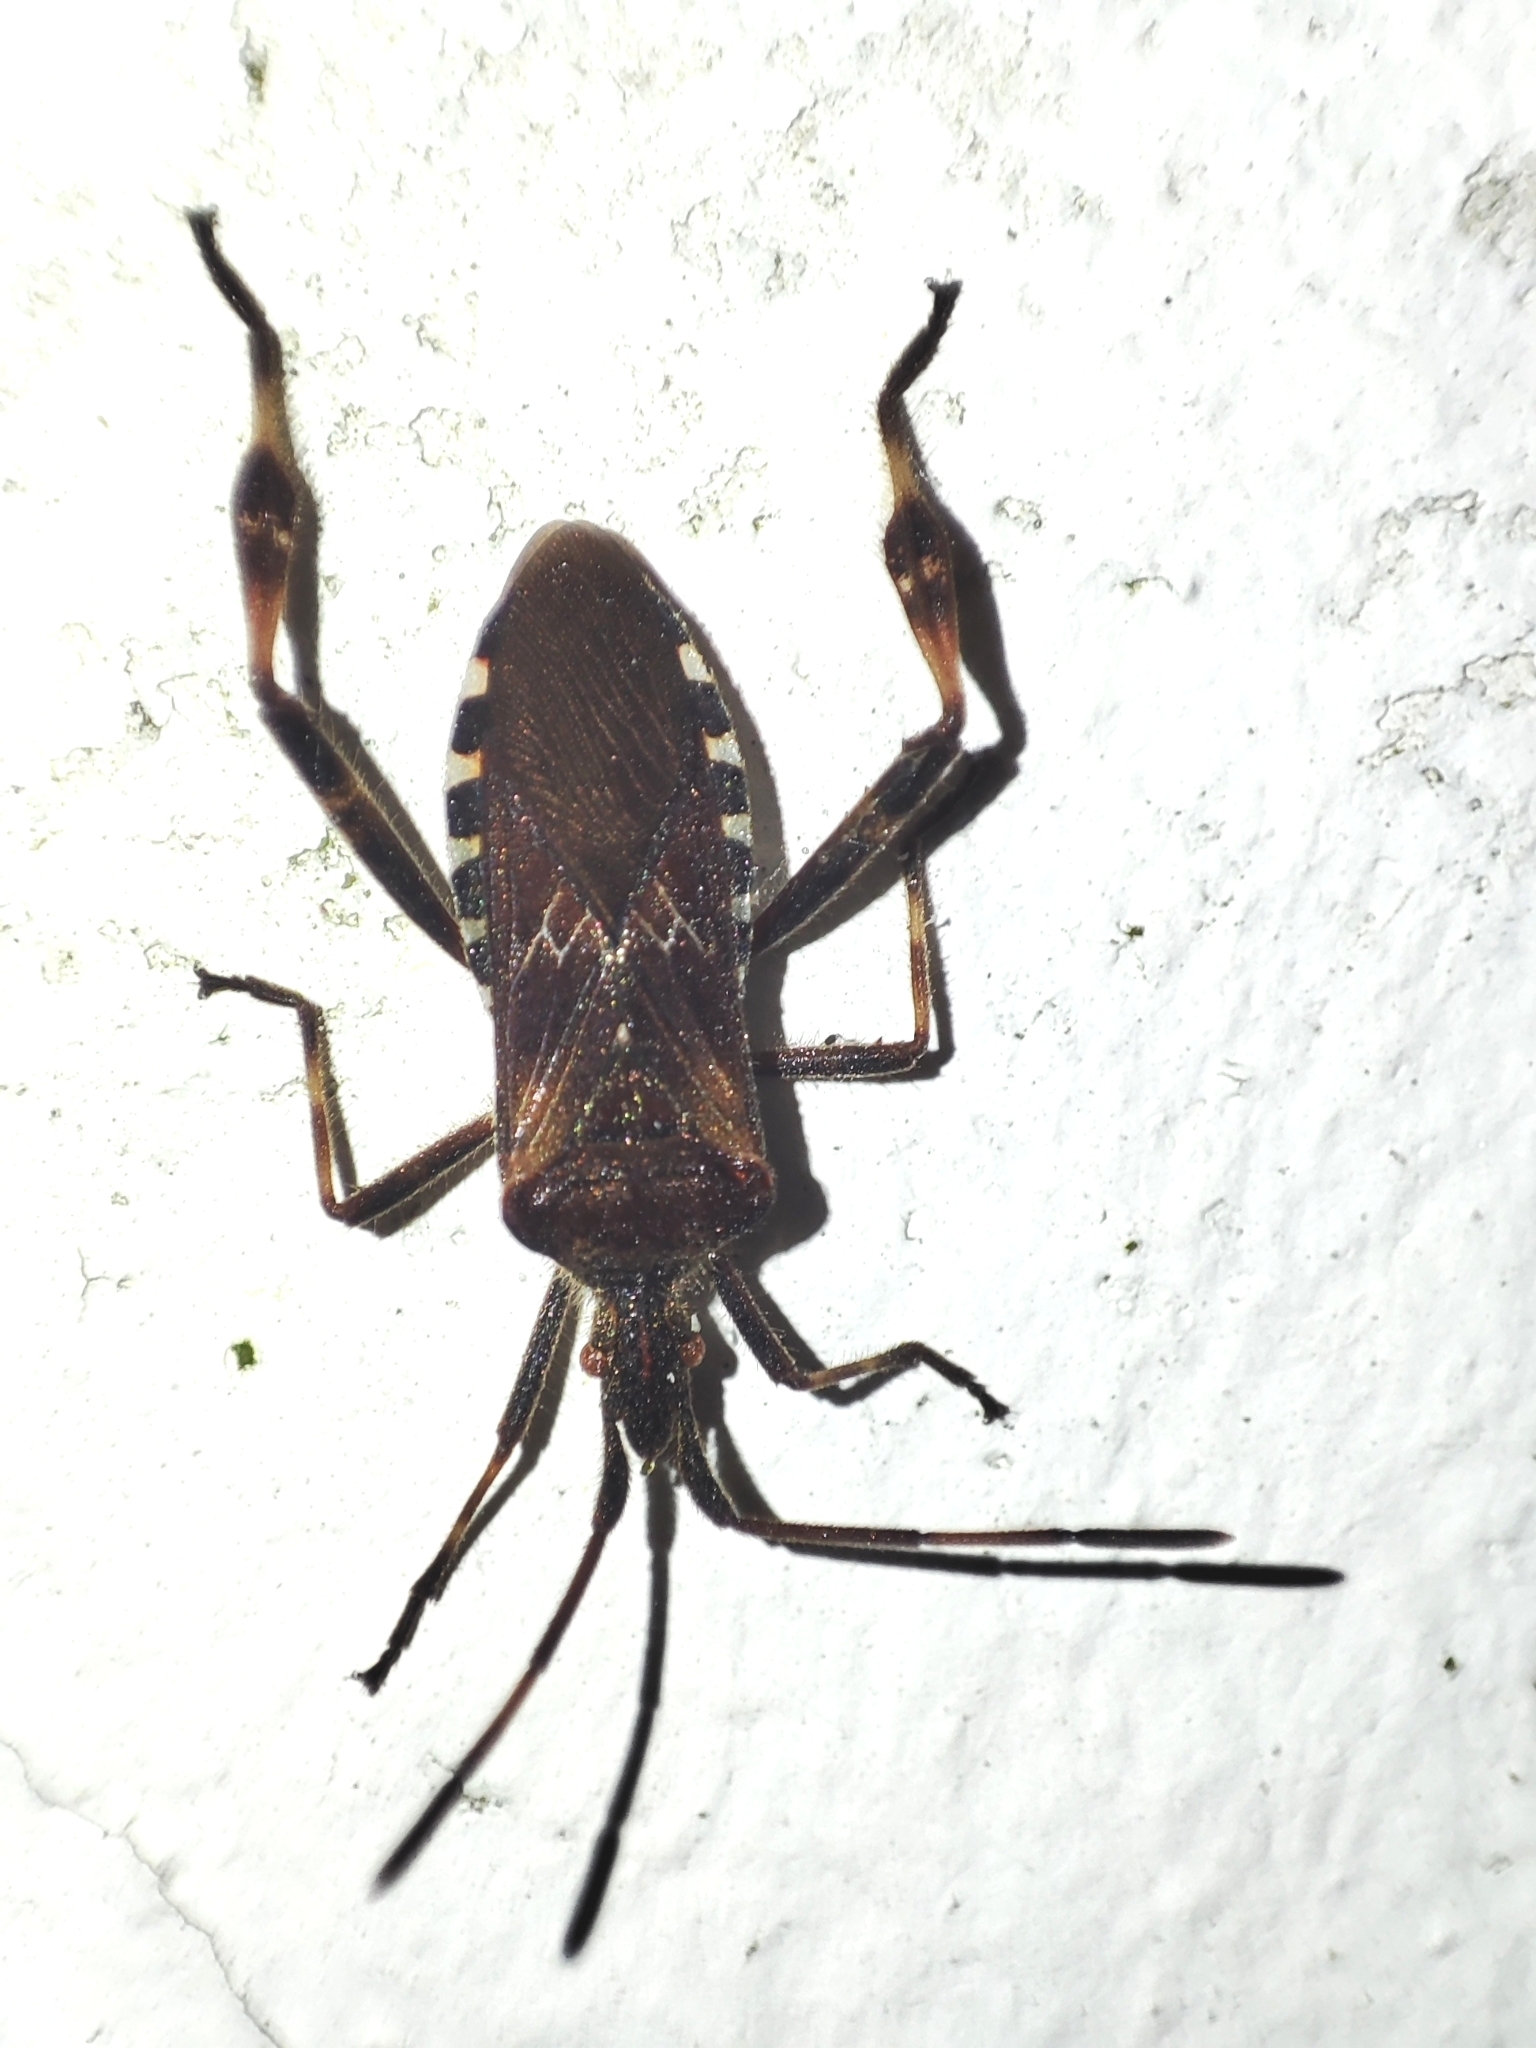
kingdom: Animalia
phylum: Arthropoda
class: Insecta
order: Hemiptera
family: Coreidae
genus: Leptoglossus
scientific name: Leptoglossus occidentalis
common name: Western conifer-seed bug
